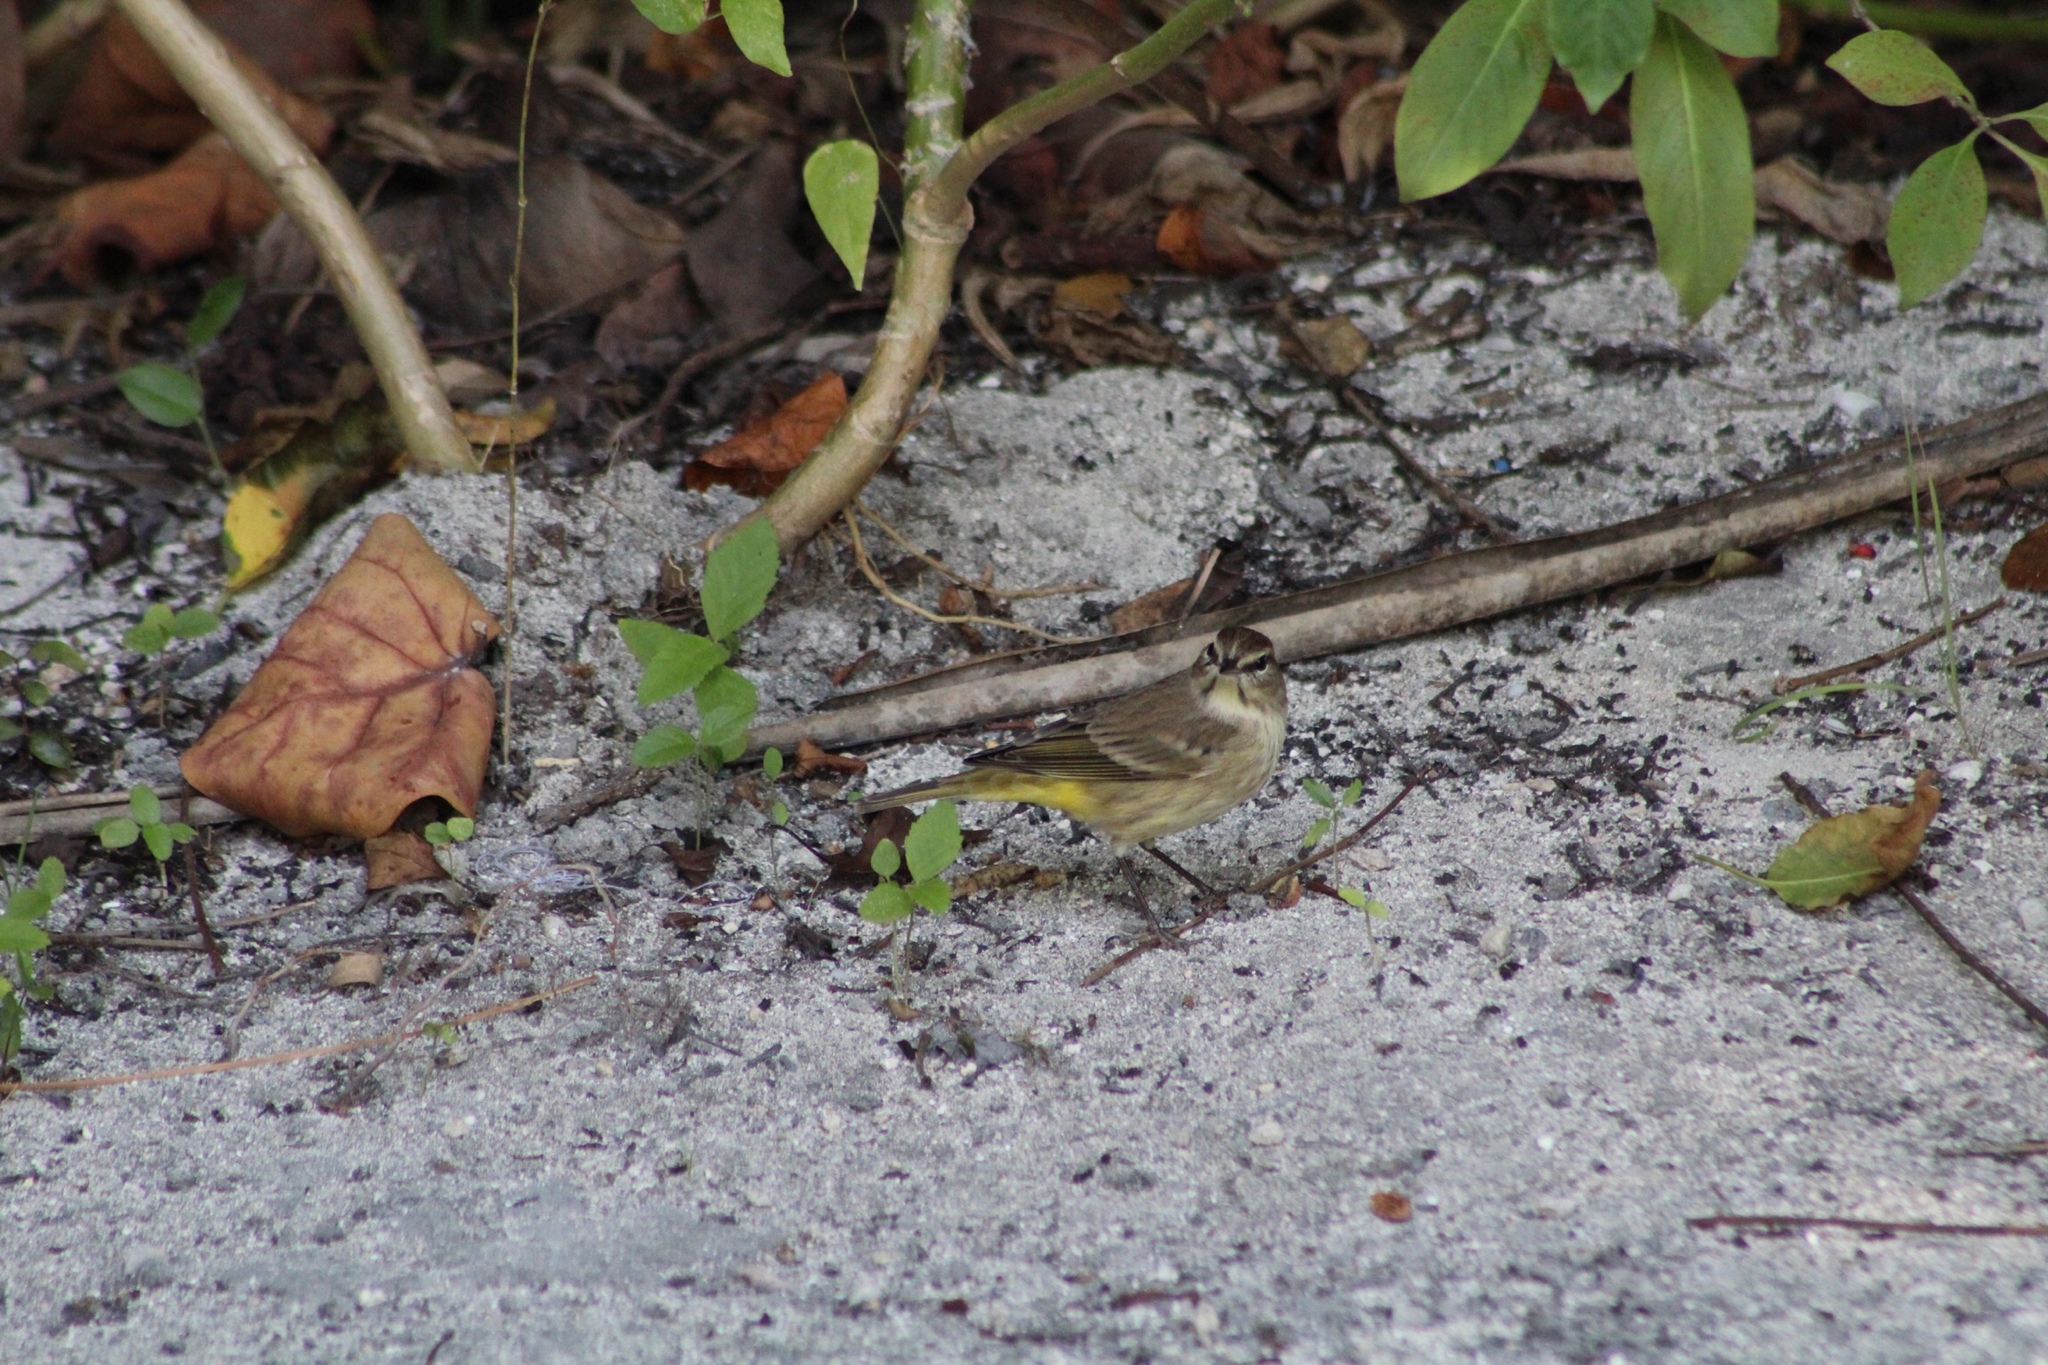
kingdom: Animalia
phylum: Chordata
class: Aves
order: Passeriformes
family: Parulidae
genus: Setophaga
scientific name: Setophaga palmarum
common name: Palm warbler
